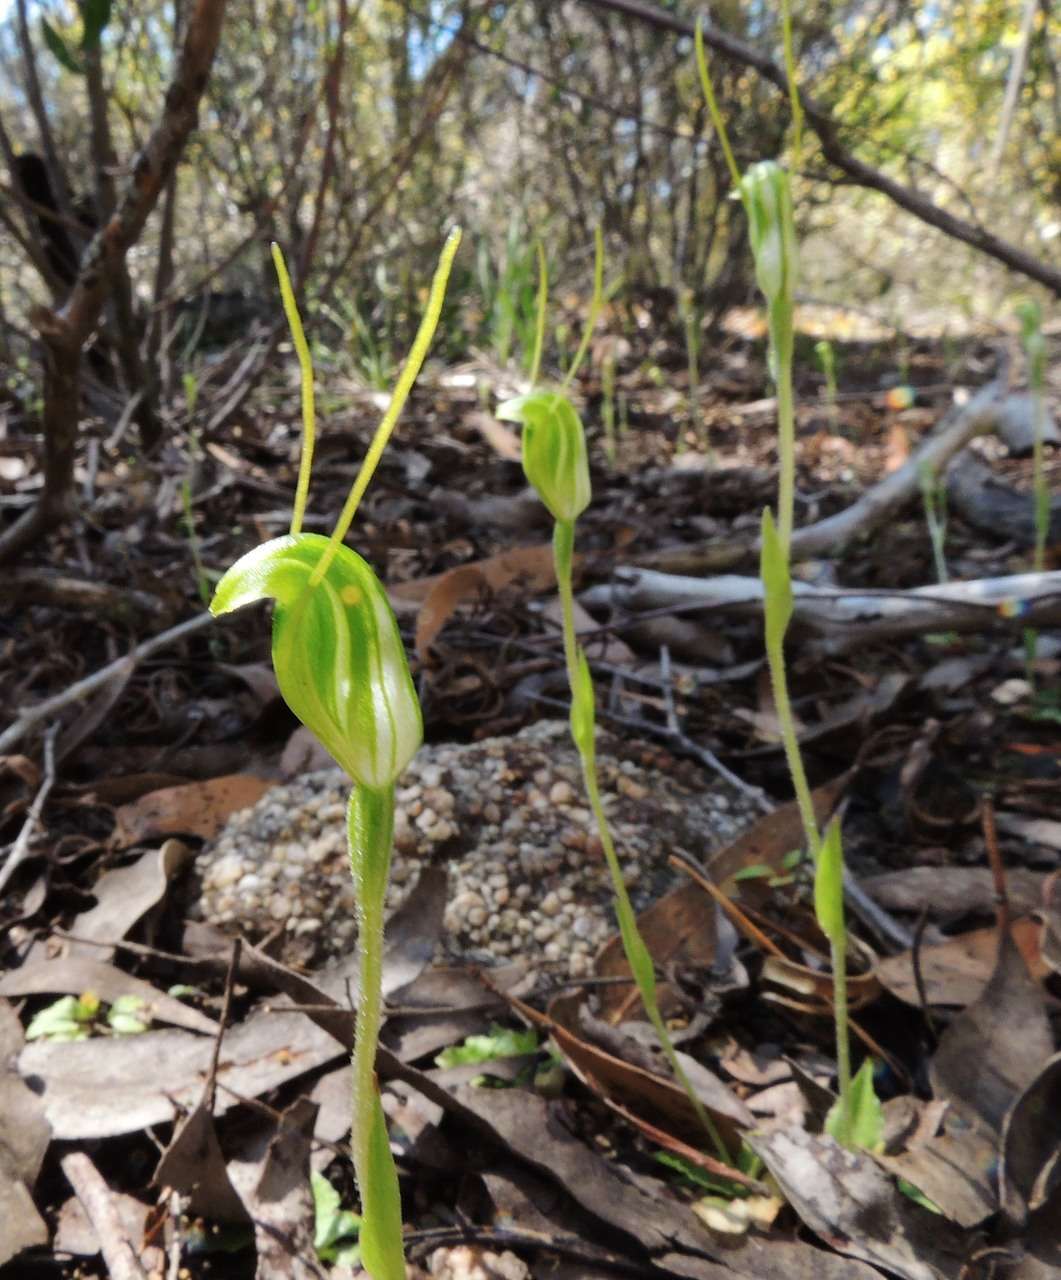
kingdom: Plantae
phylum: Tracheophyta
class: Liliopsida
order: Asparagales
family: Orchidaceae
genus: Pterostylis
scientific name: Pterostylis nana
